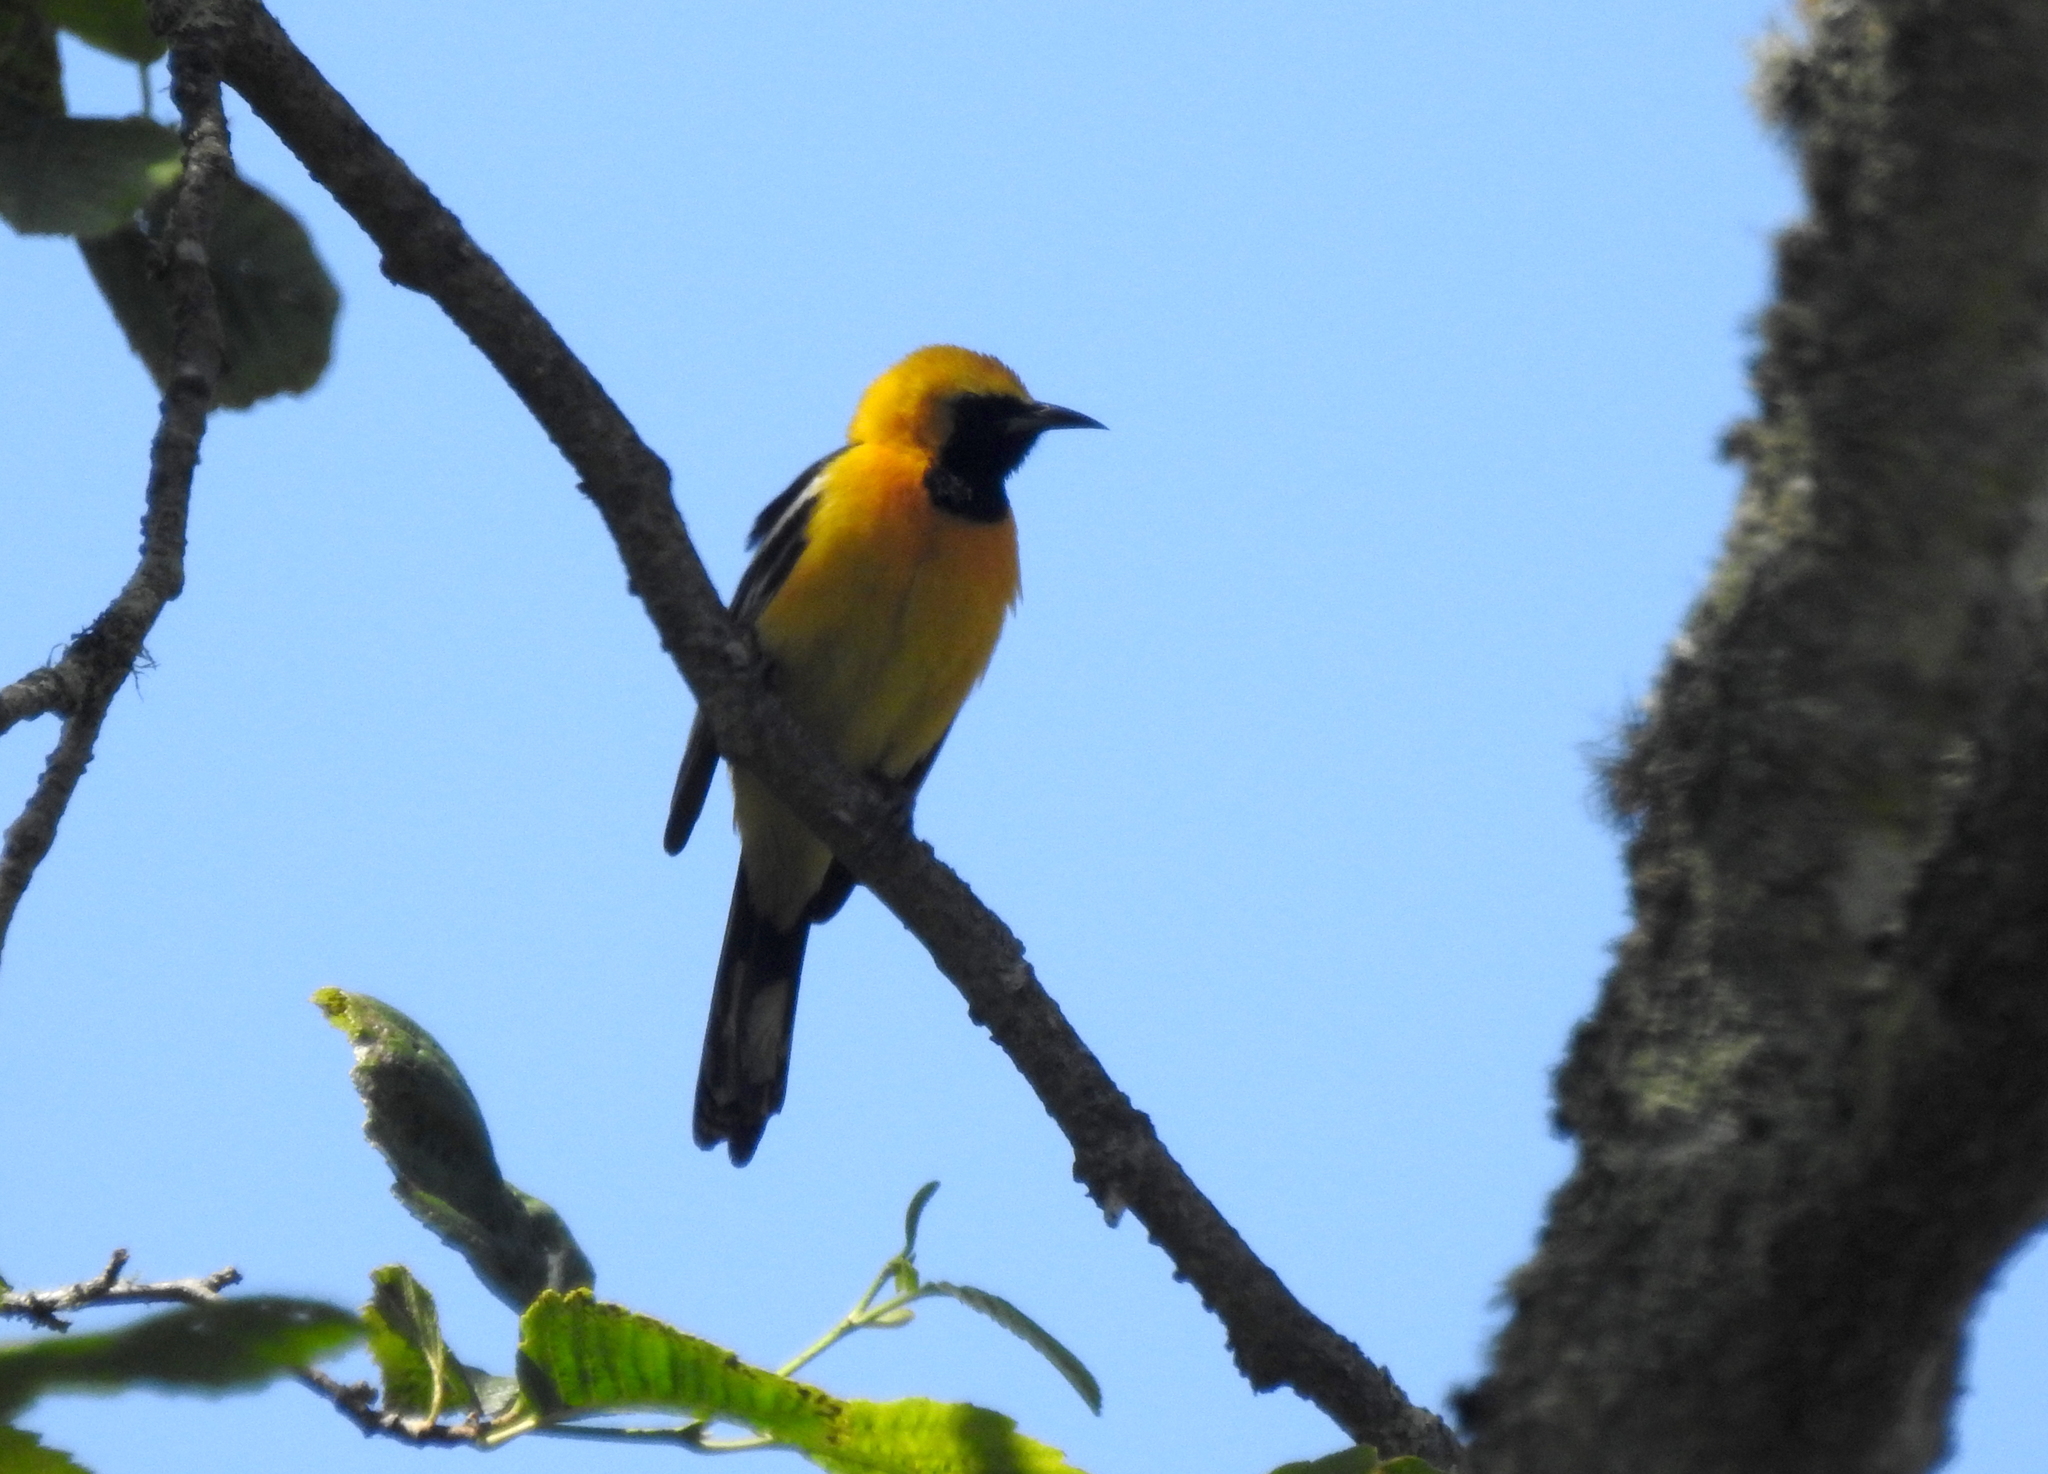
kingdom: Animalia
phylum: Chordata
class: Aves
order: Passeriformes
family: Icteridae
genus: Icterus
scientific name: Icterus cucullatus
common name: Hooded oriole
